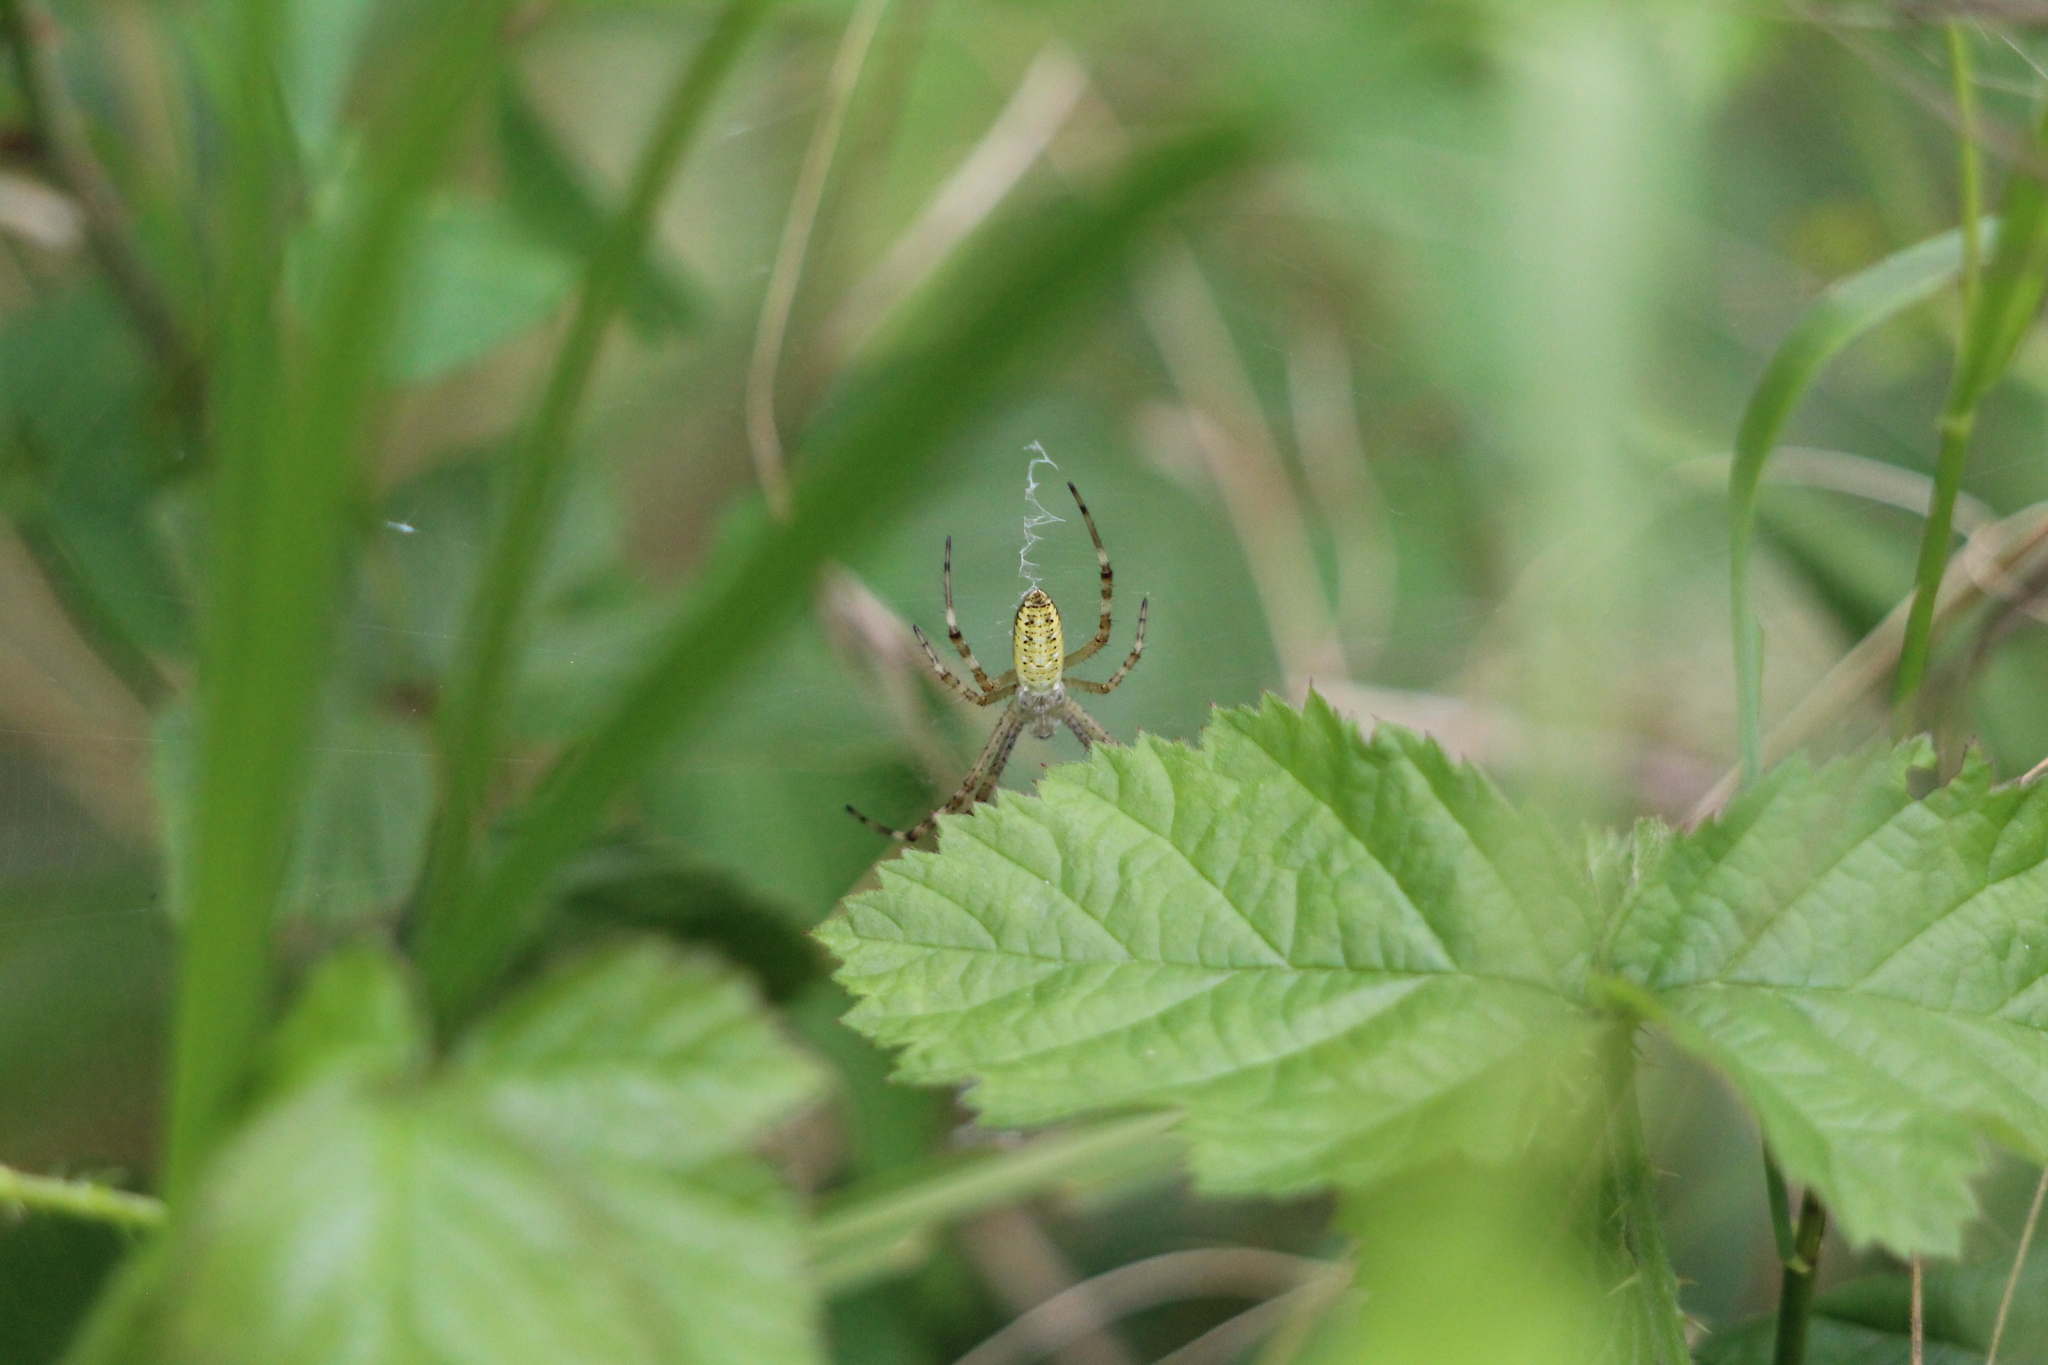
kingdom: Animalia
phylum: Arthropoda
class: Arachnida
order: Araneae
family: Araneidae
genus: Argiope
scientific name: Argiope bruennichi
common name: Wasp spider
